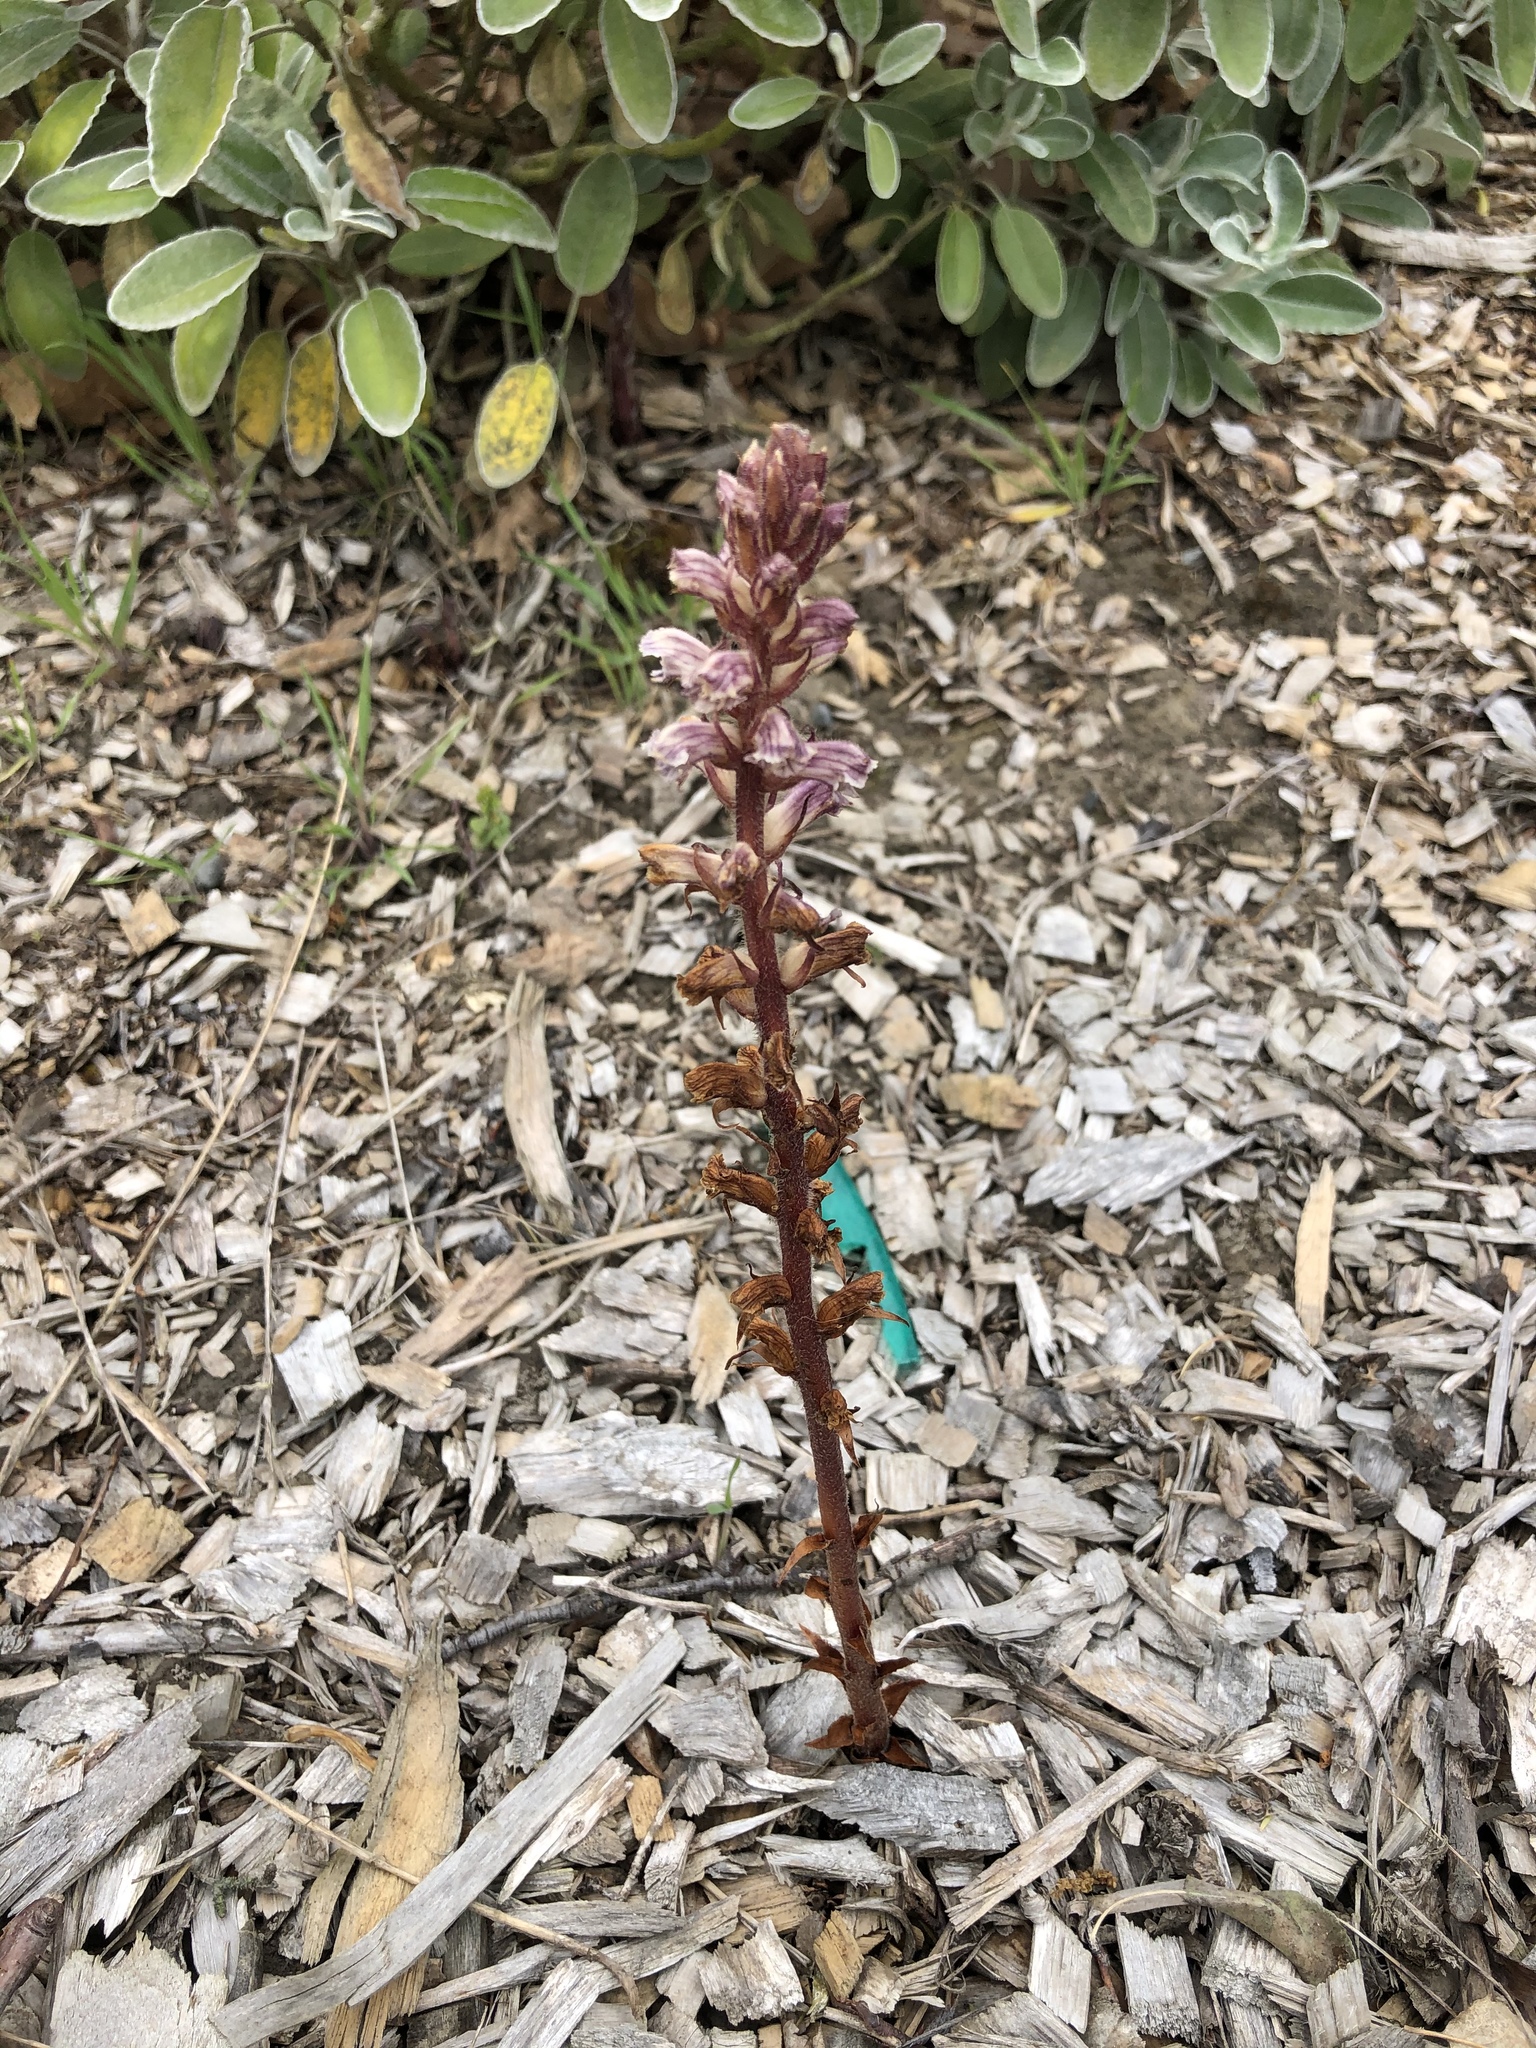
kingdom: Plantae
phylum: Tracheophyta
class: Magnoliopsida
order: Lamiales
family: Orobanchaceae
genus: Orobanche
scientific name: Orobanche minor
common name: Common broomrape
